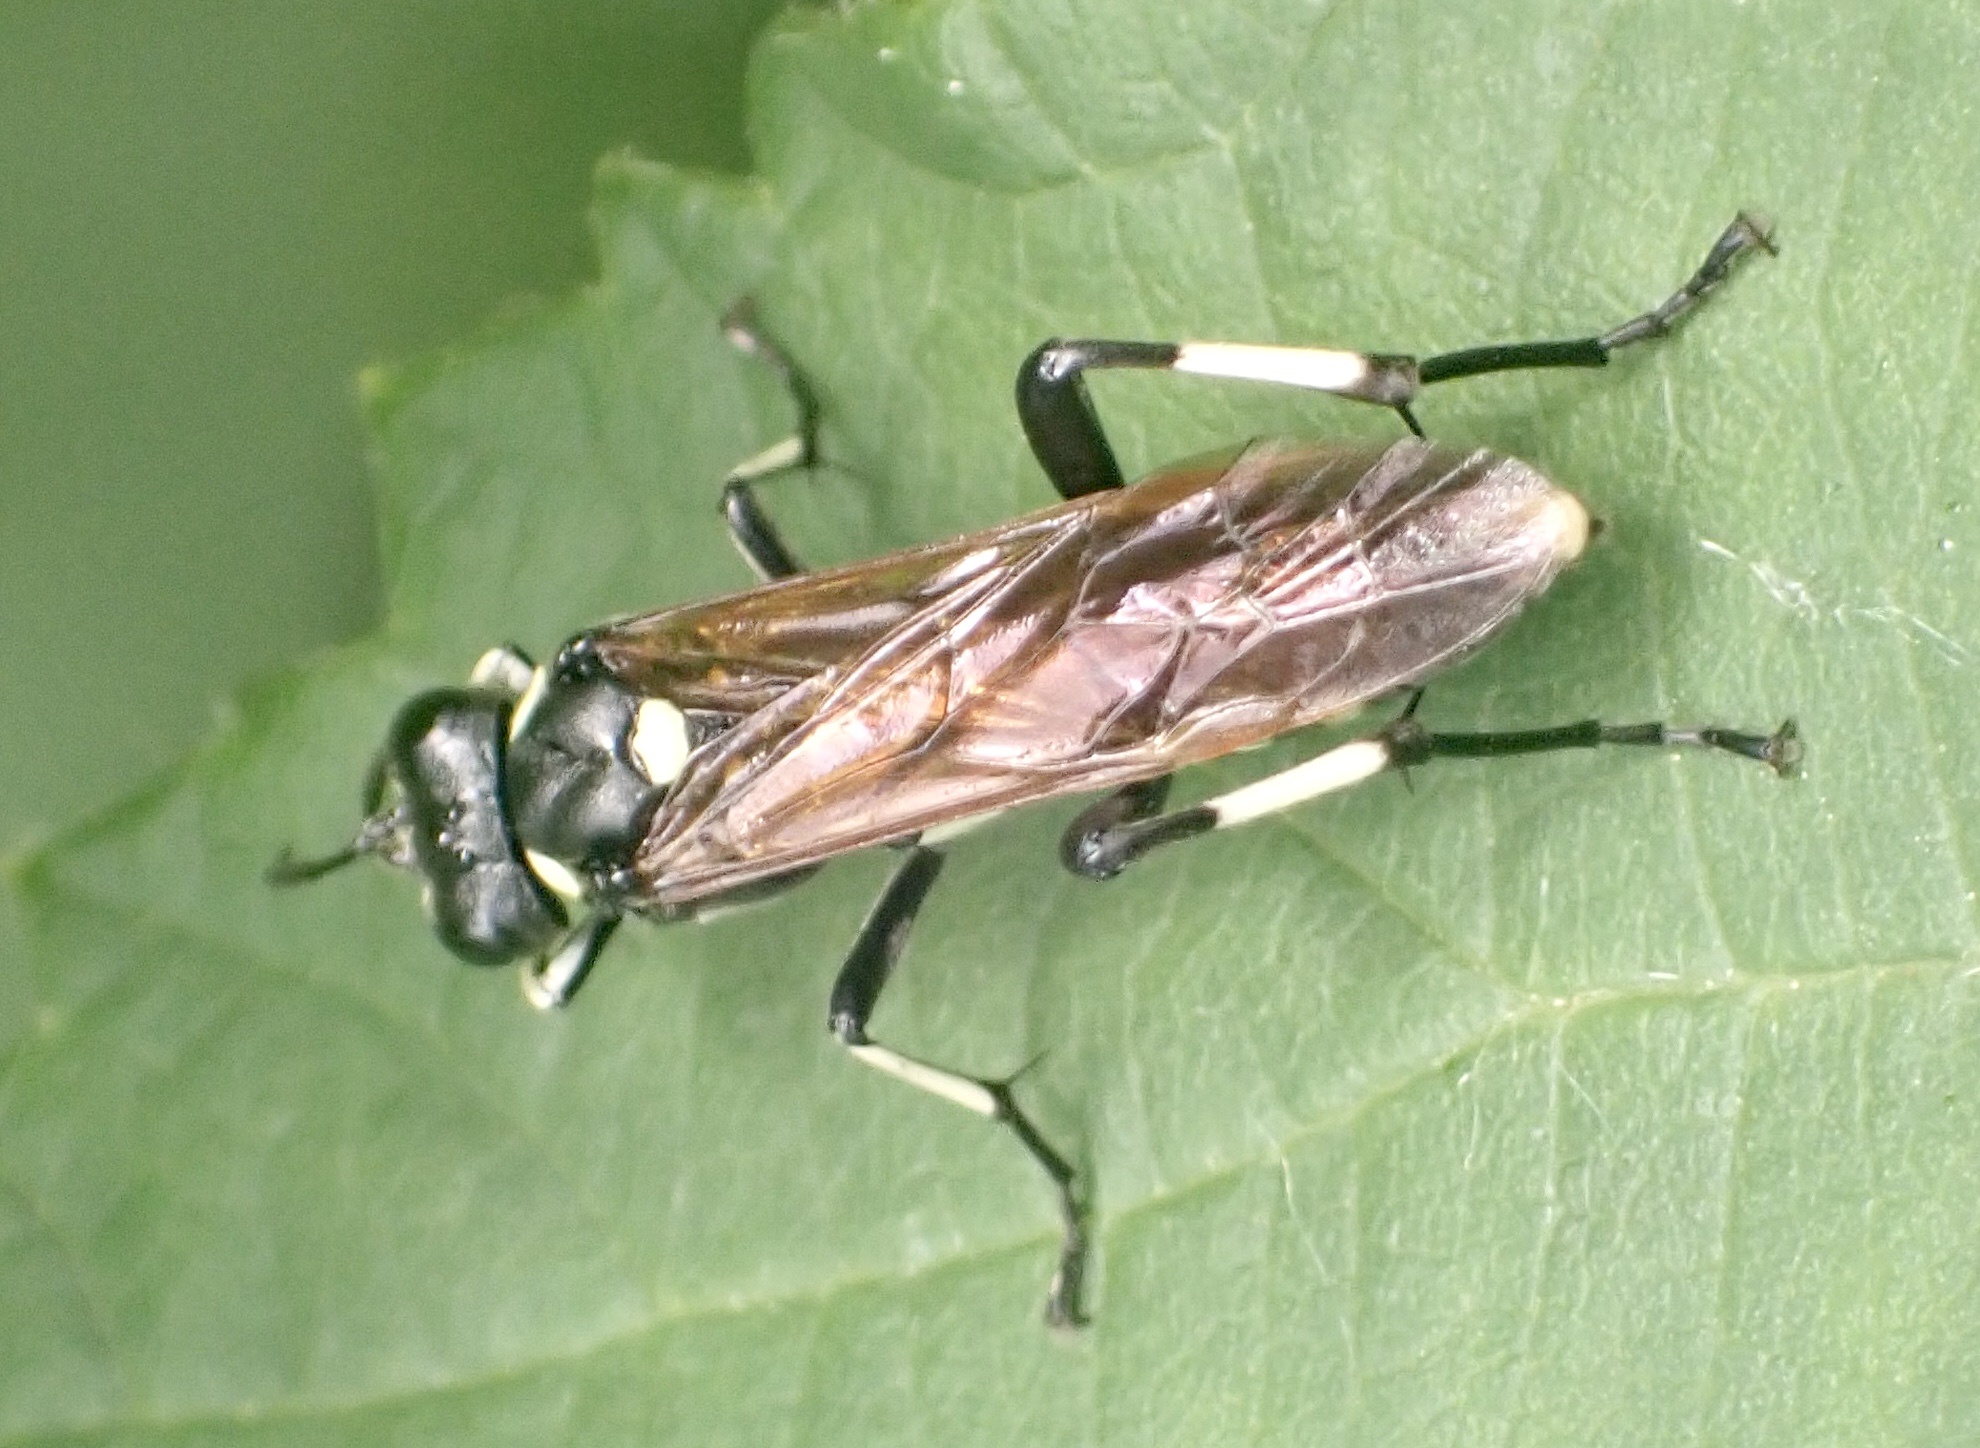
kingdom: Animalia
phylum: Arthropoda
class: Insecta
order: Hymenoptera
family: Tenthredinidae
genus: Macrophya
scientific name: Macrophya duodecimpunctata
